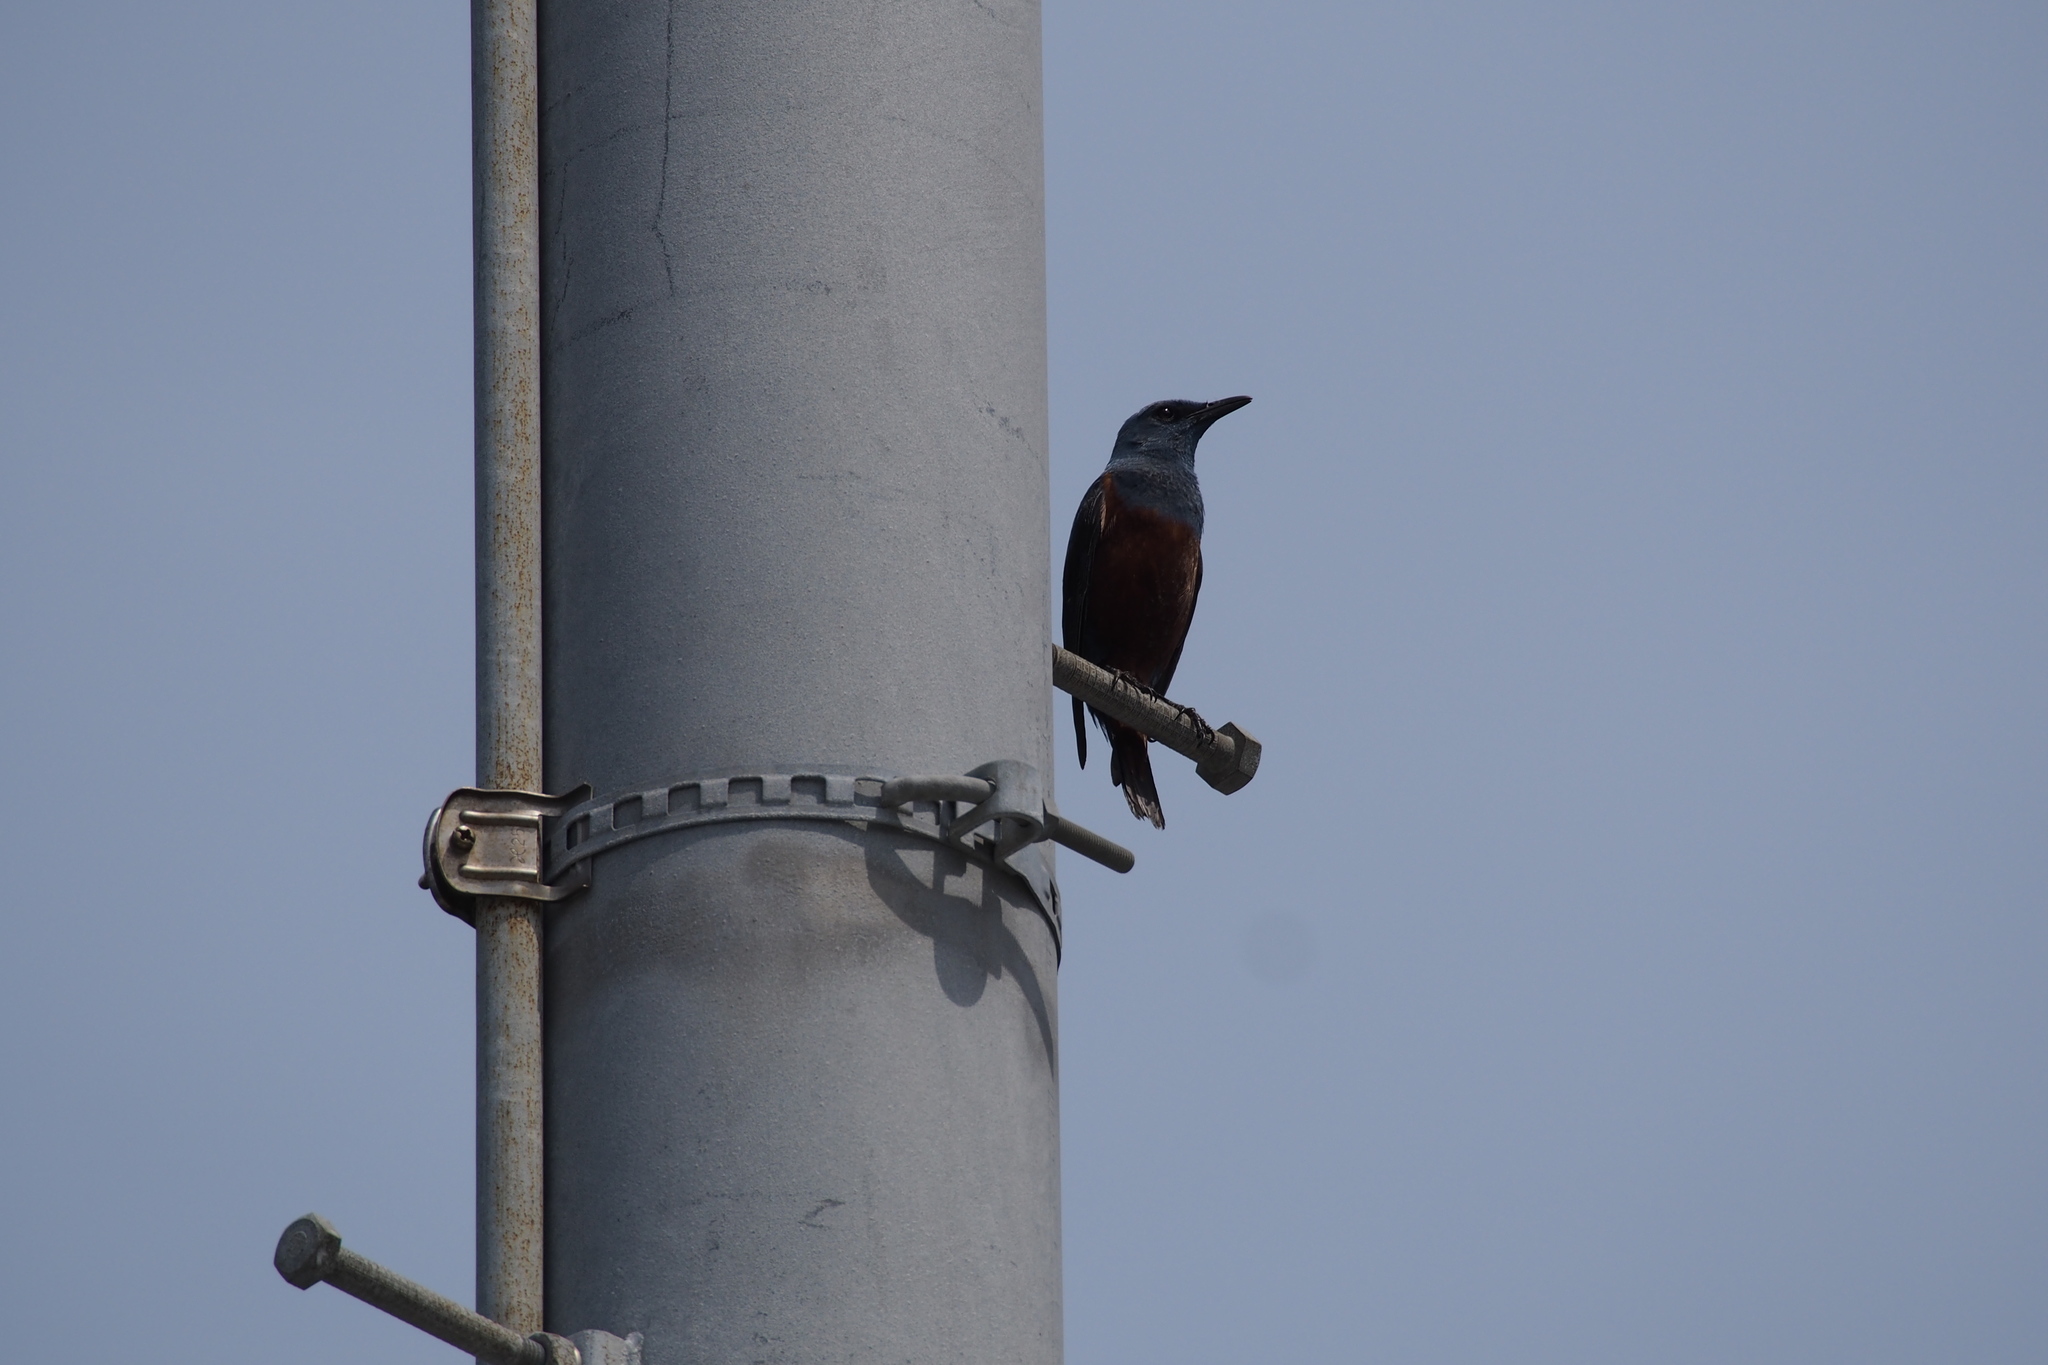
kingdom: Animalia
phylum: Chordata
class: Aves
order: Passeriformes
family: Muscicapidae
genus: Monticola
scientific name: Monticola solitarius
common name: Blue rock thrush
